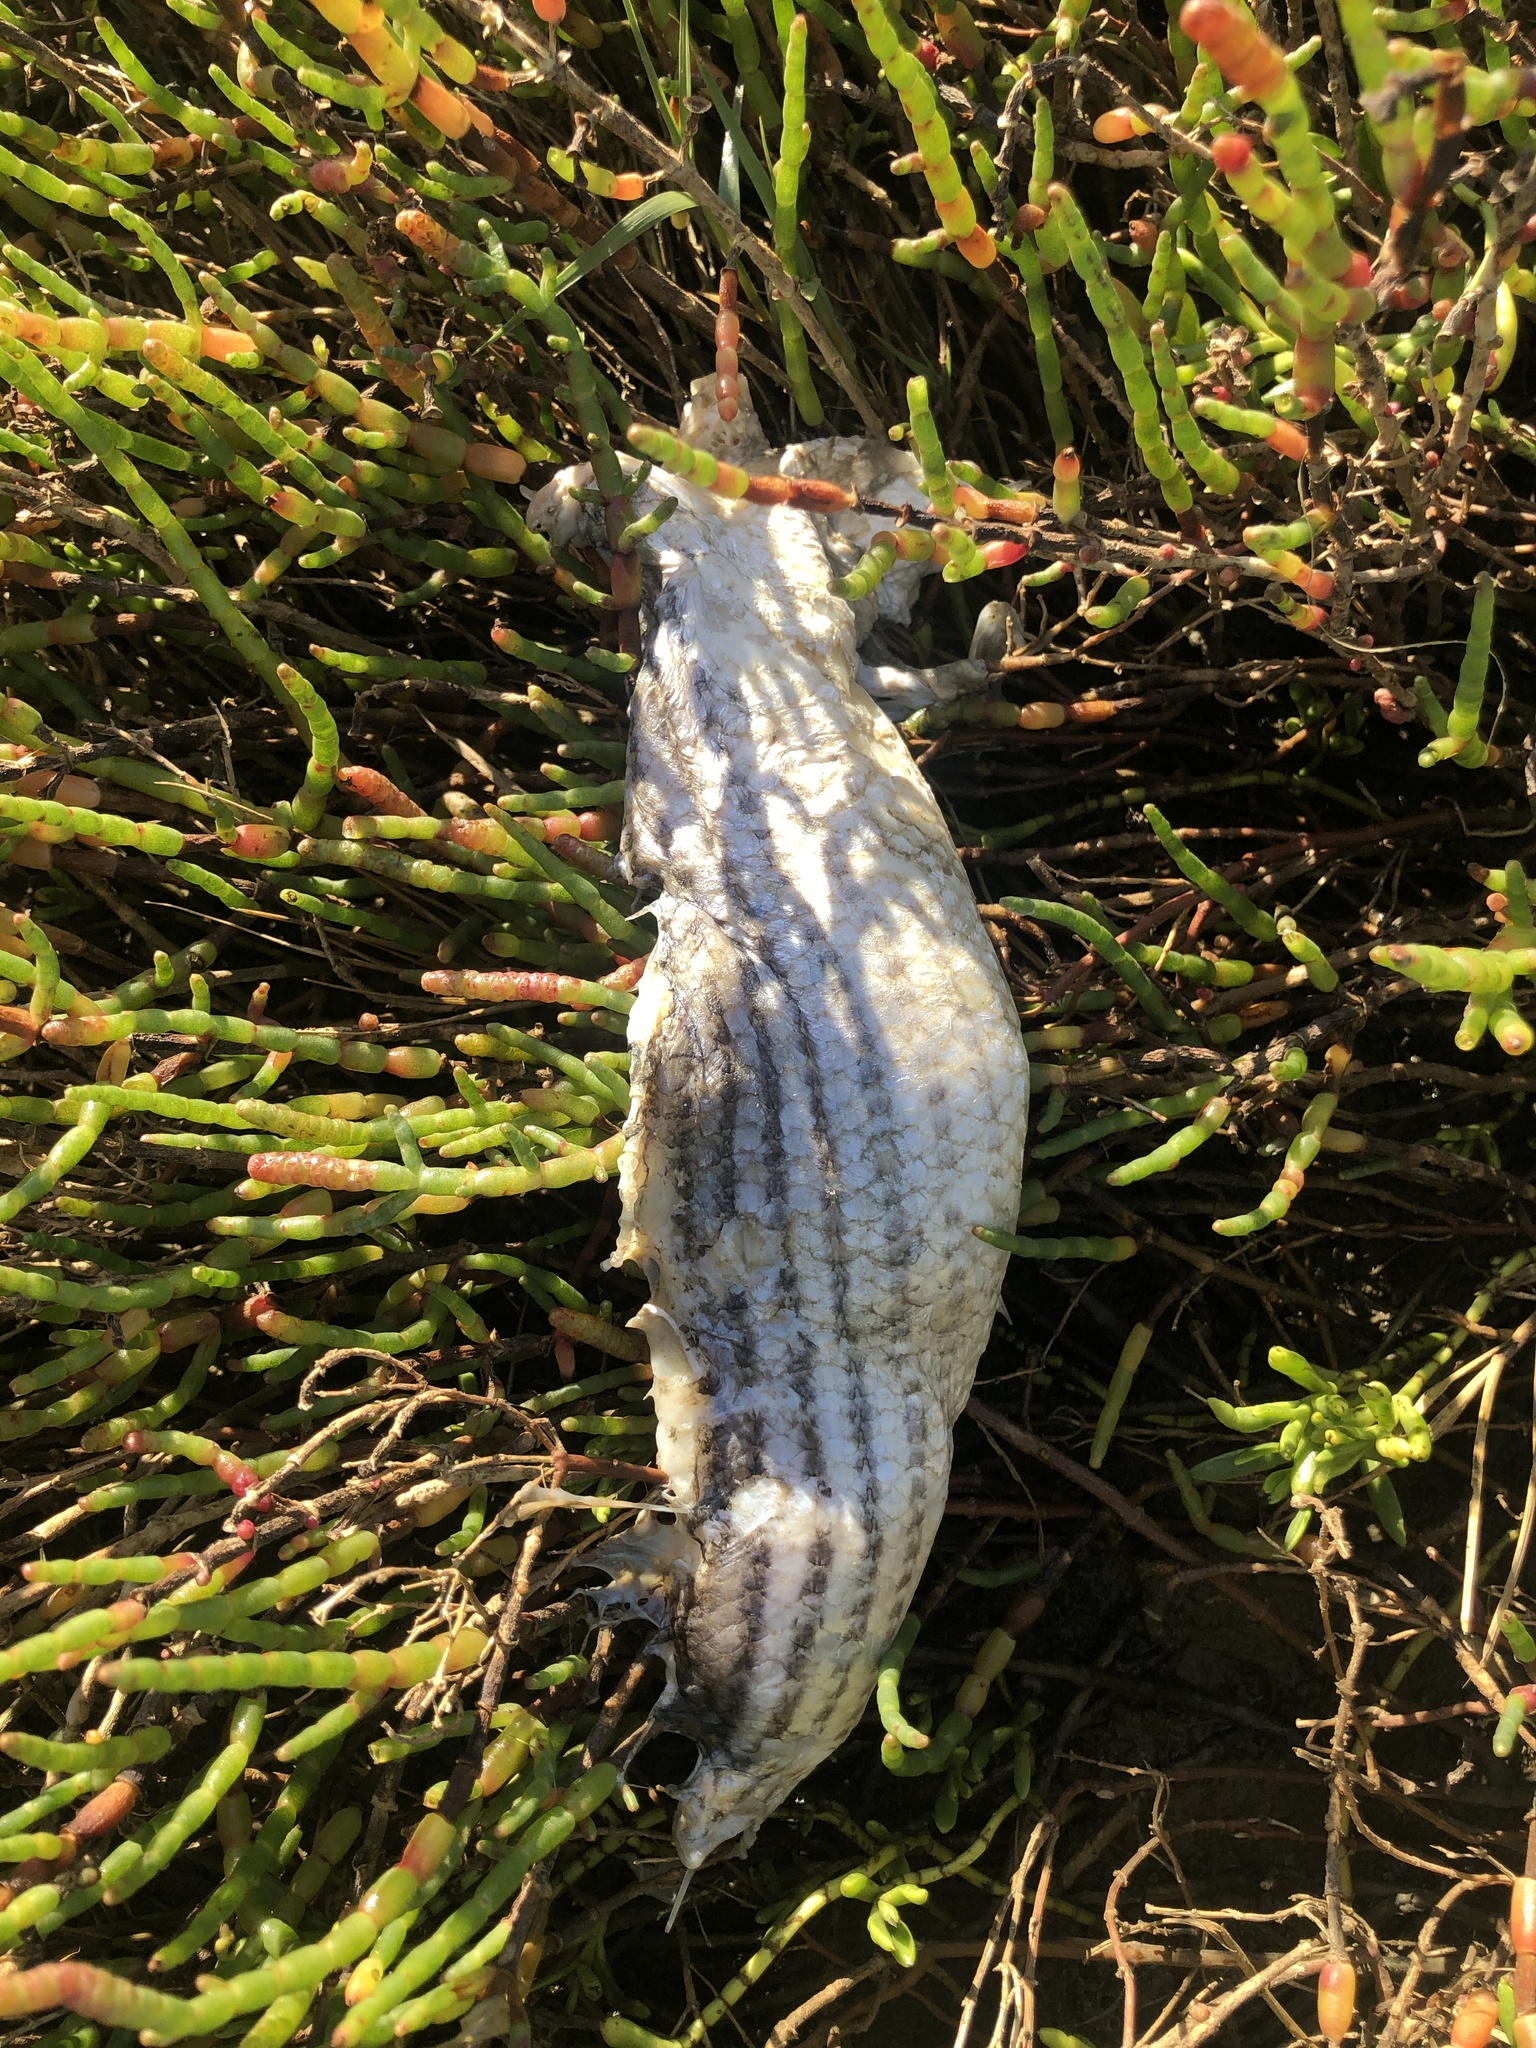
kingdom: Animalia
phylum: Chordata
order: Perciformes
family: Moronidae
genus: Morone
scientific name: Morone saxatilis
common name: Striped bass
